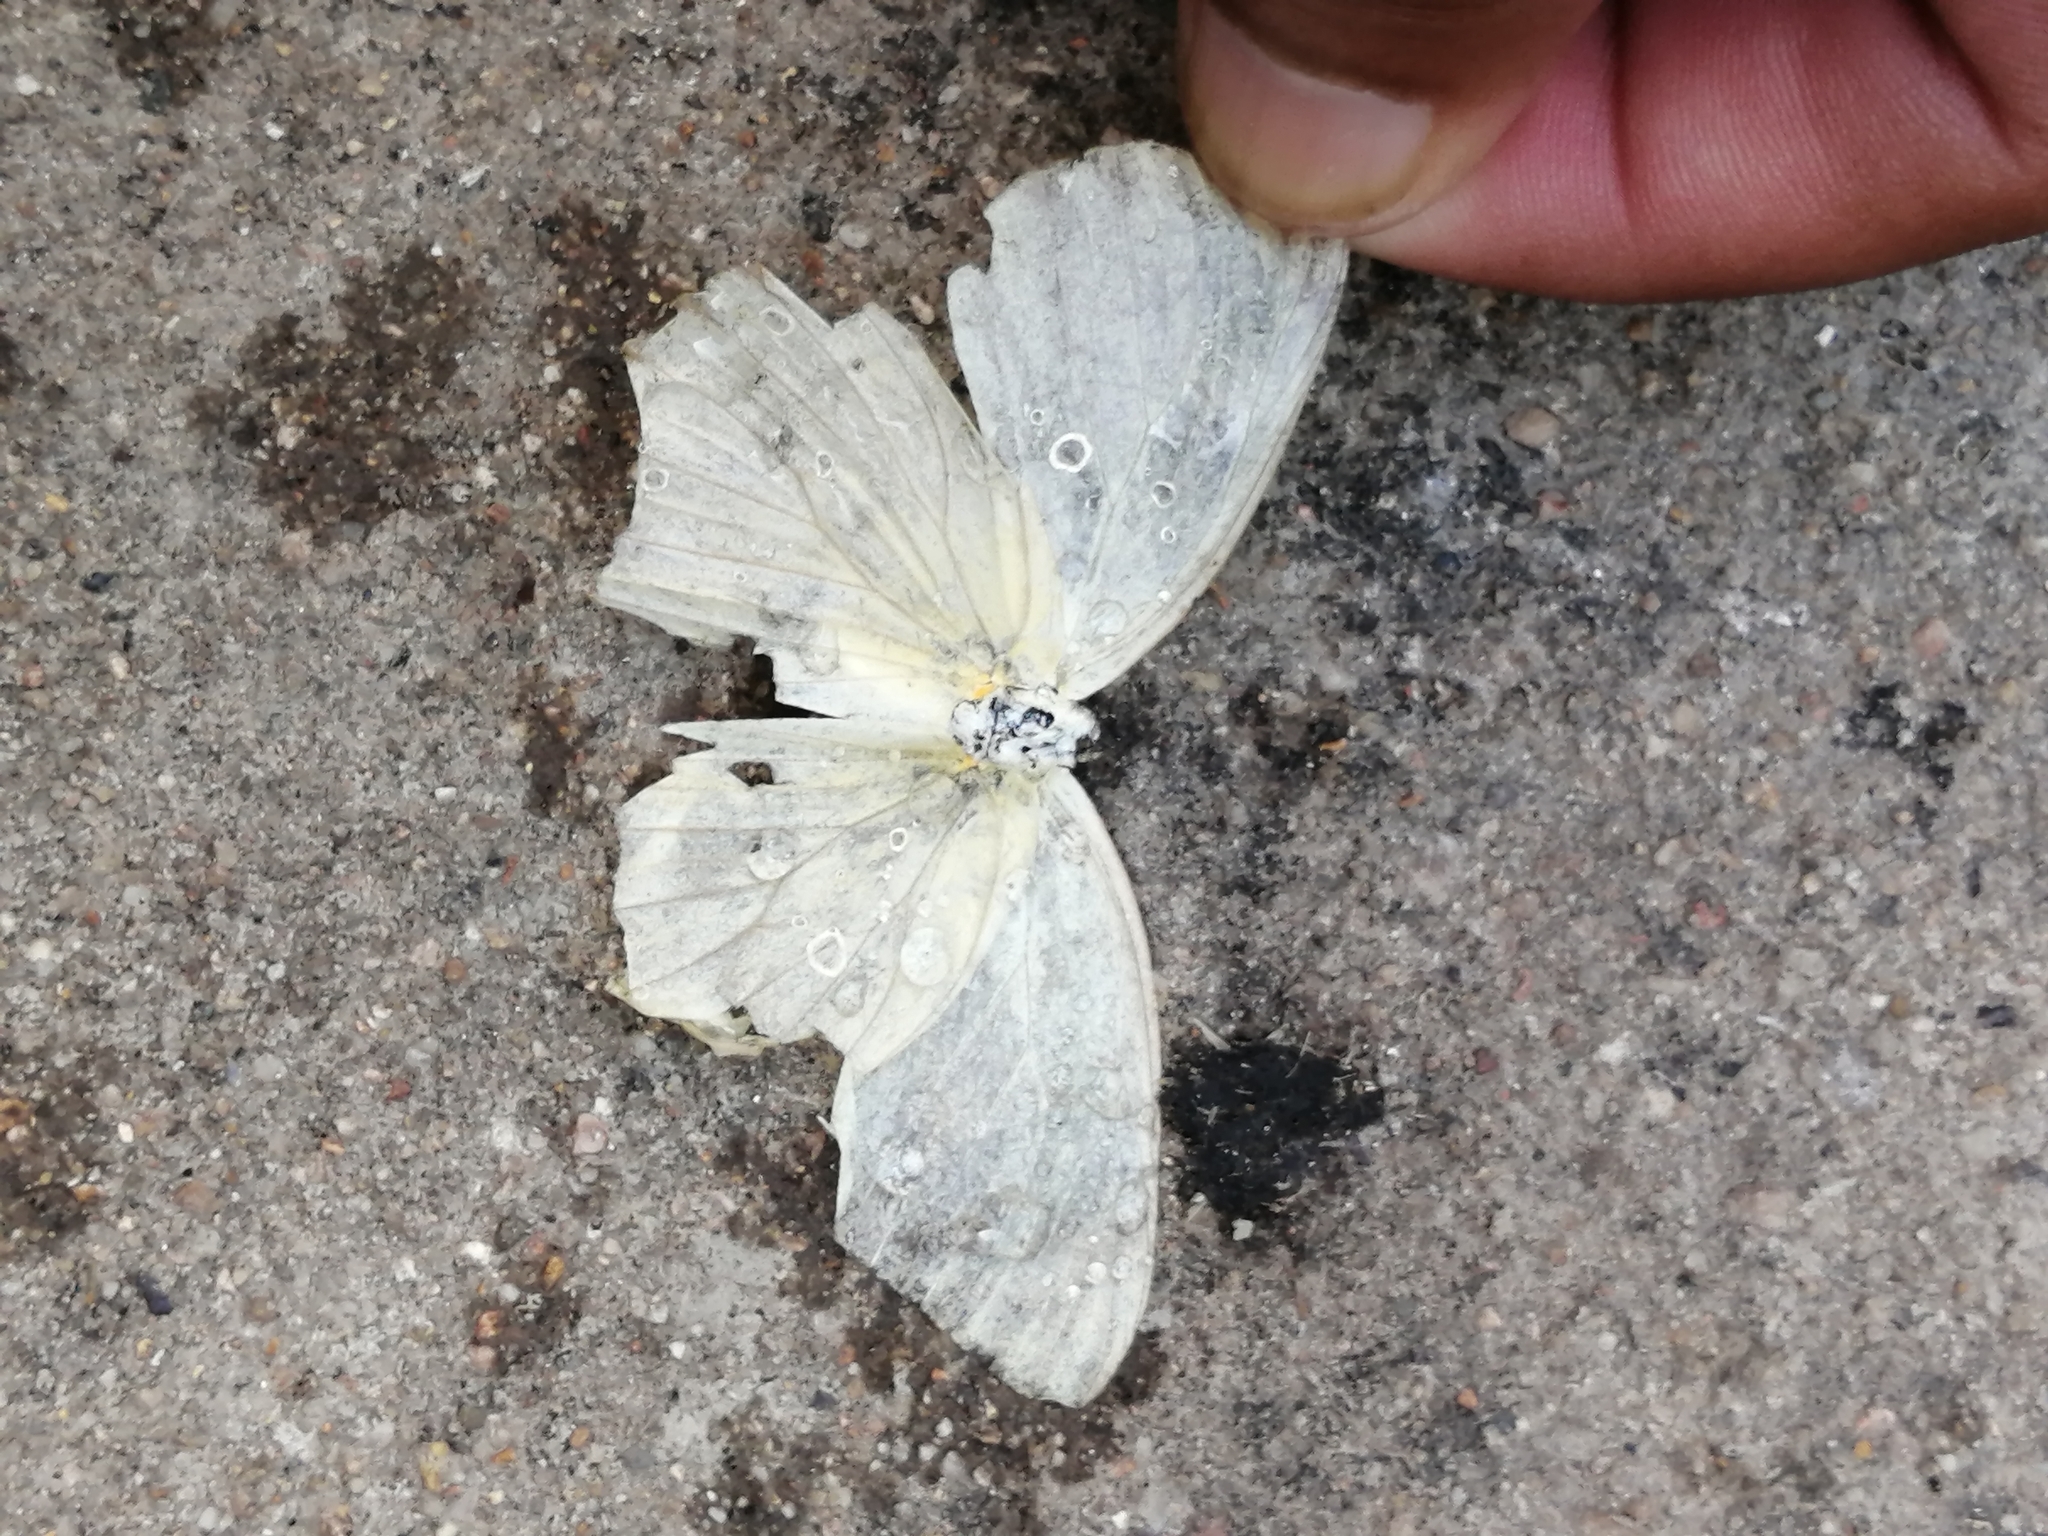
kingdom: Animalia
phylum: Arthropoda
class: Insecta
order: Lepidoptera
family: Pieridae
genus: Ascia
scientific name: Ascia monuste
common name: Great southern white
